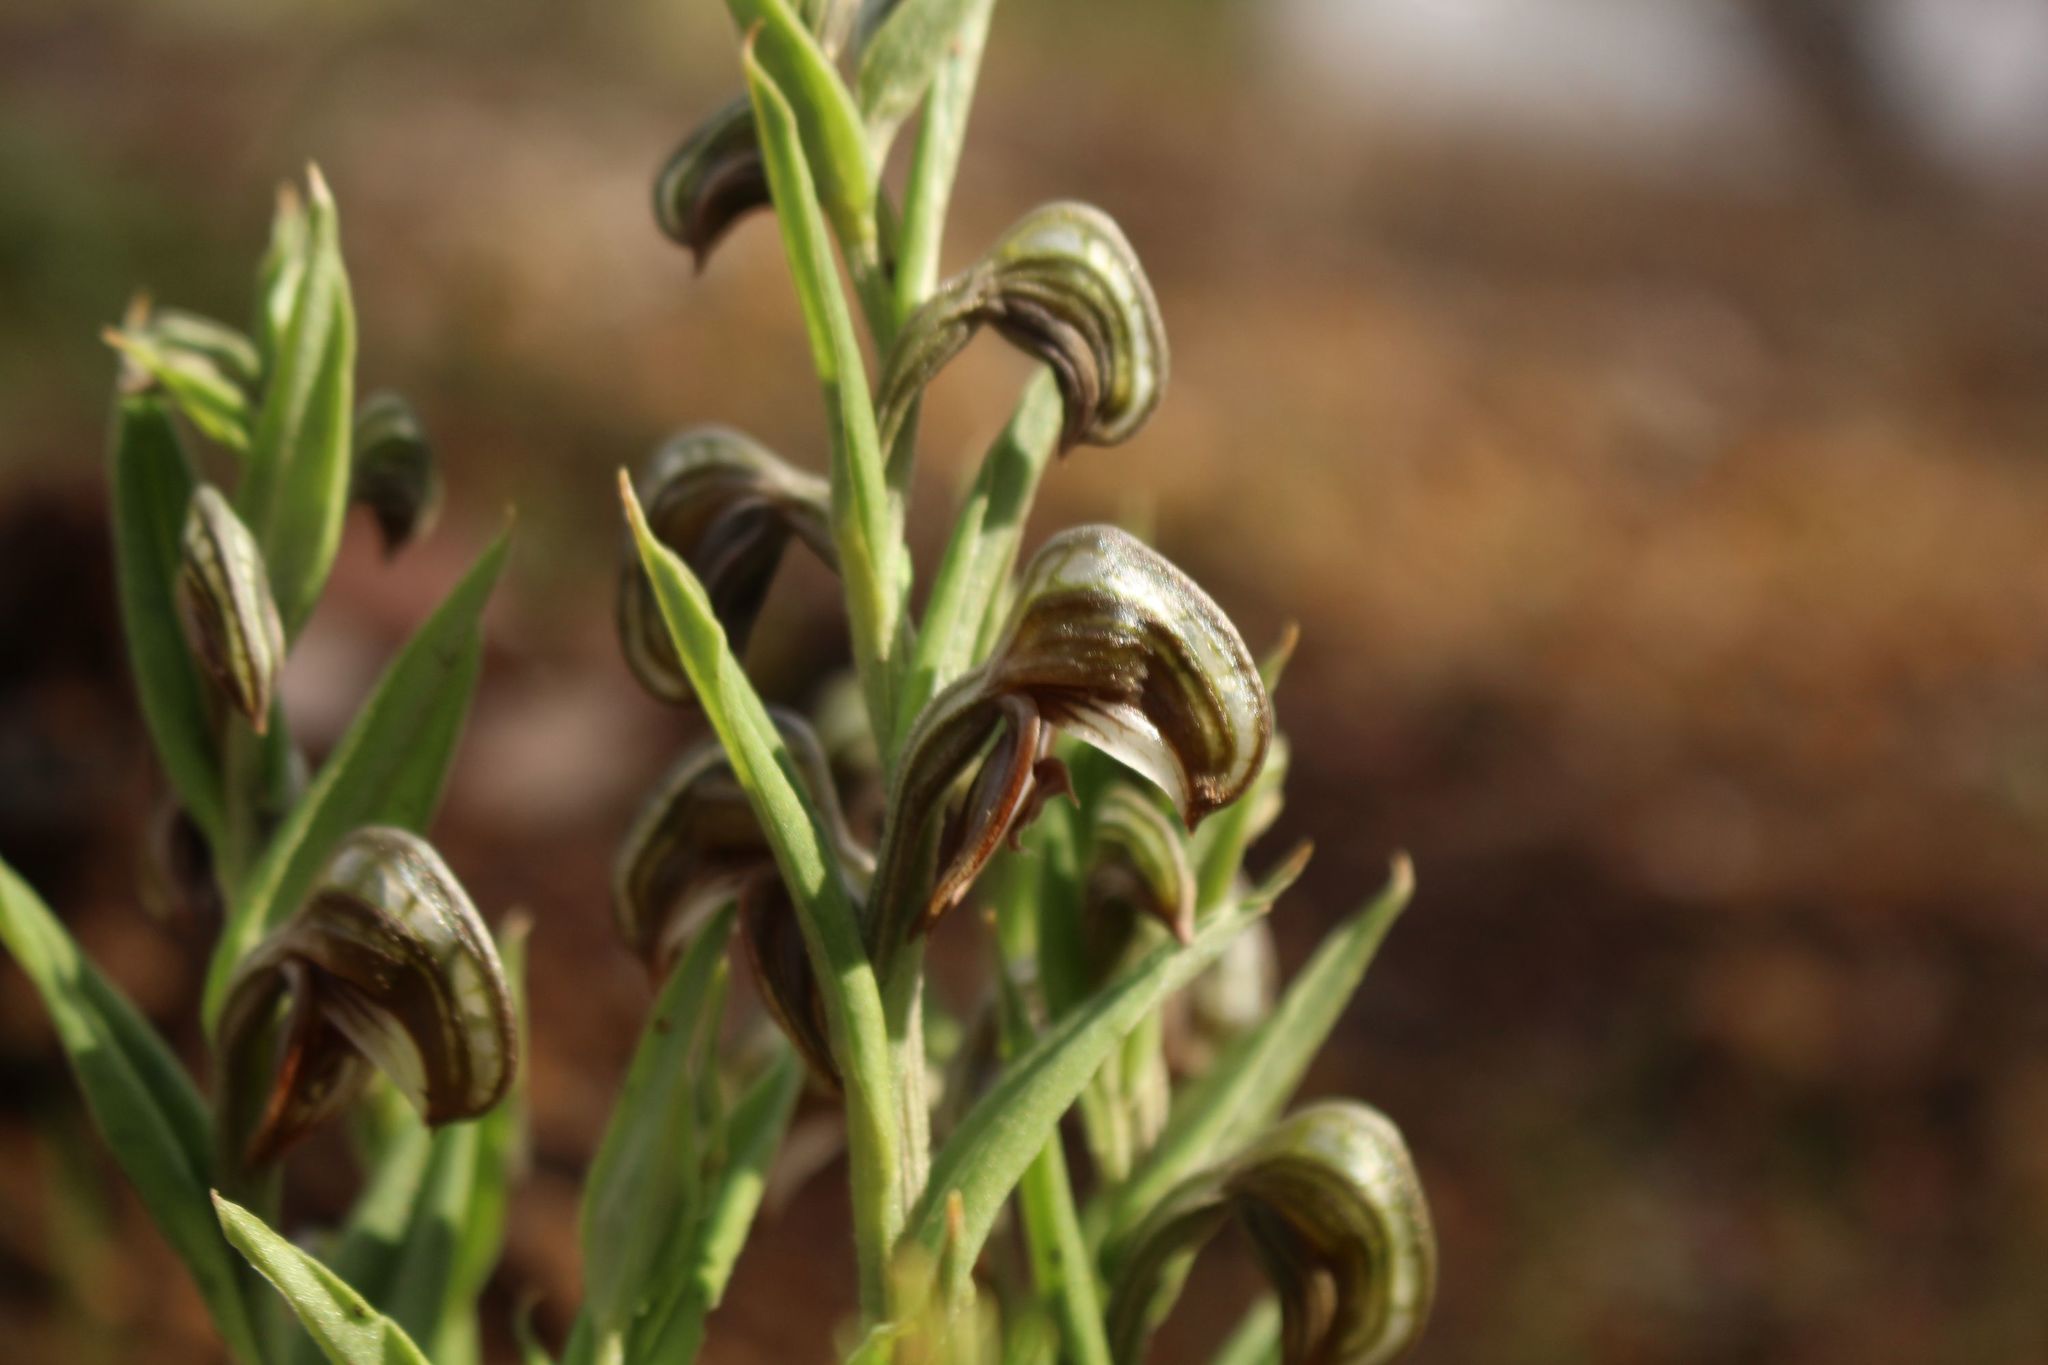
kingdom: Plantae
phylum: Tracheophyta
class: Liliopsida
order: Asparagales
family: Orchidaceae
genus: Pterostylis
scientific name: Pterostylis sanguinea
